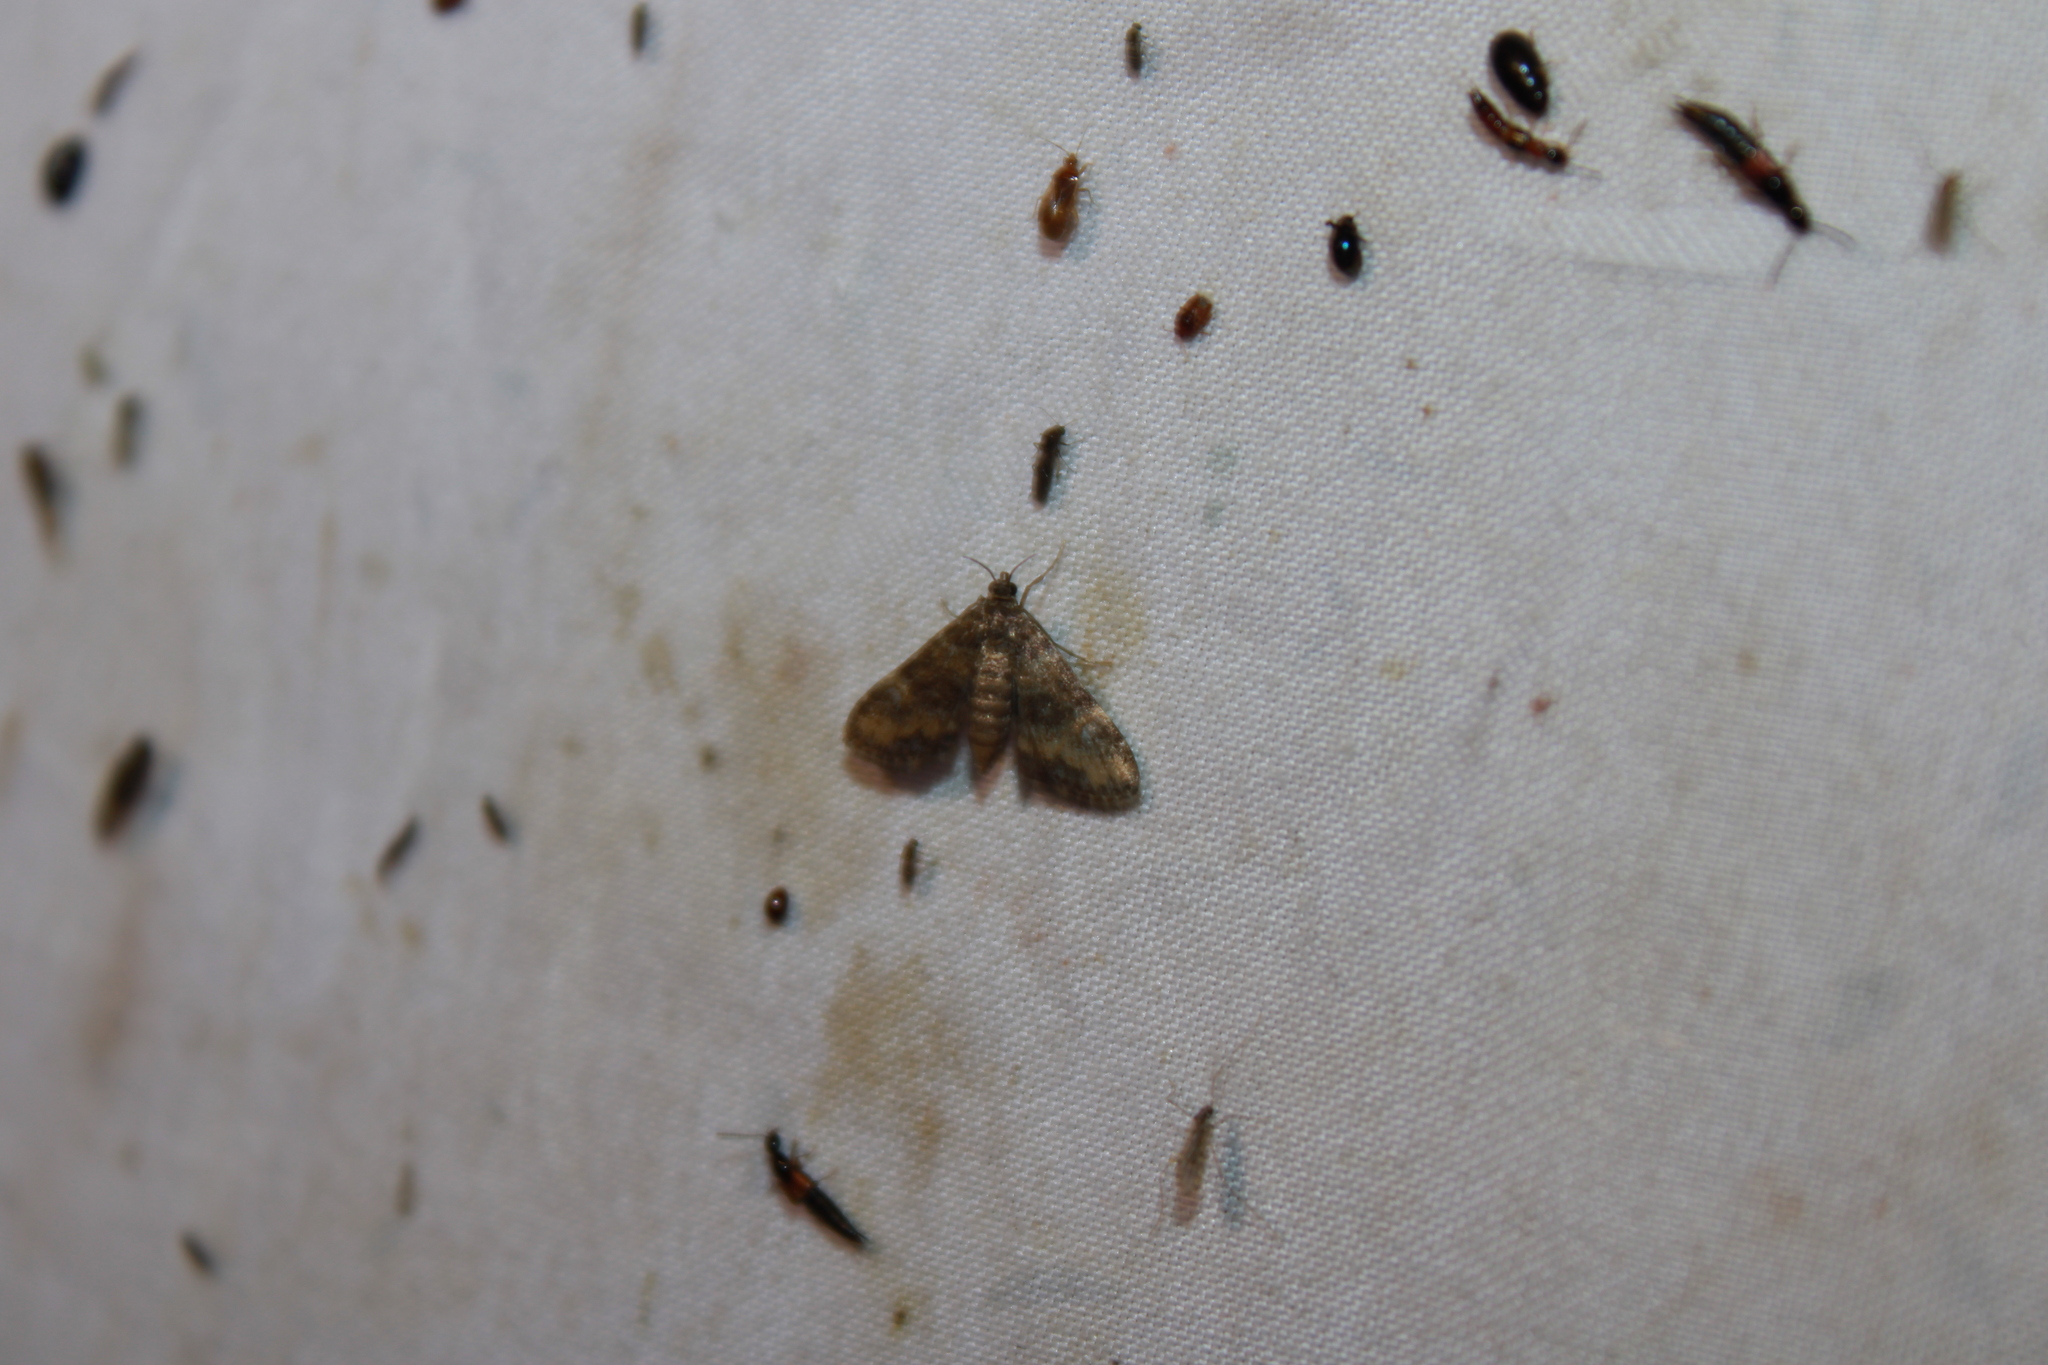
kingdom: Animalia
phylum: Arthropoda
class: Insecta
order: Lepidoptera
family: Crambidae
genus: Elophila
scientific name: Elophila obliteralis
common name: Waterlily leafcutter moth
